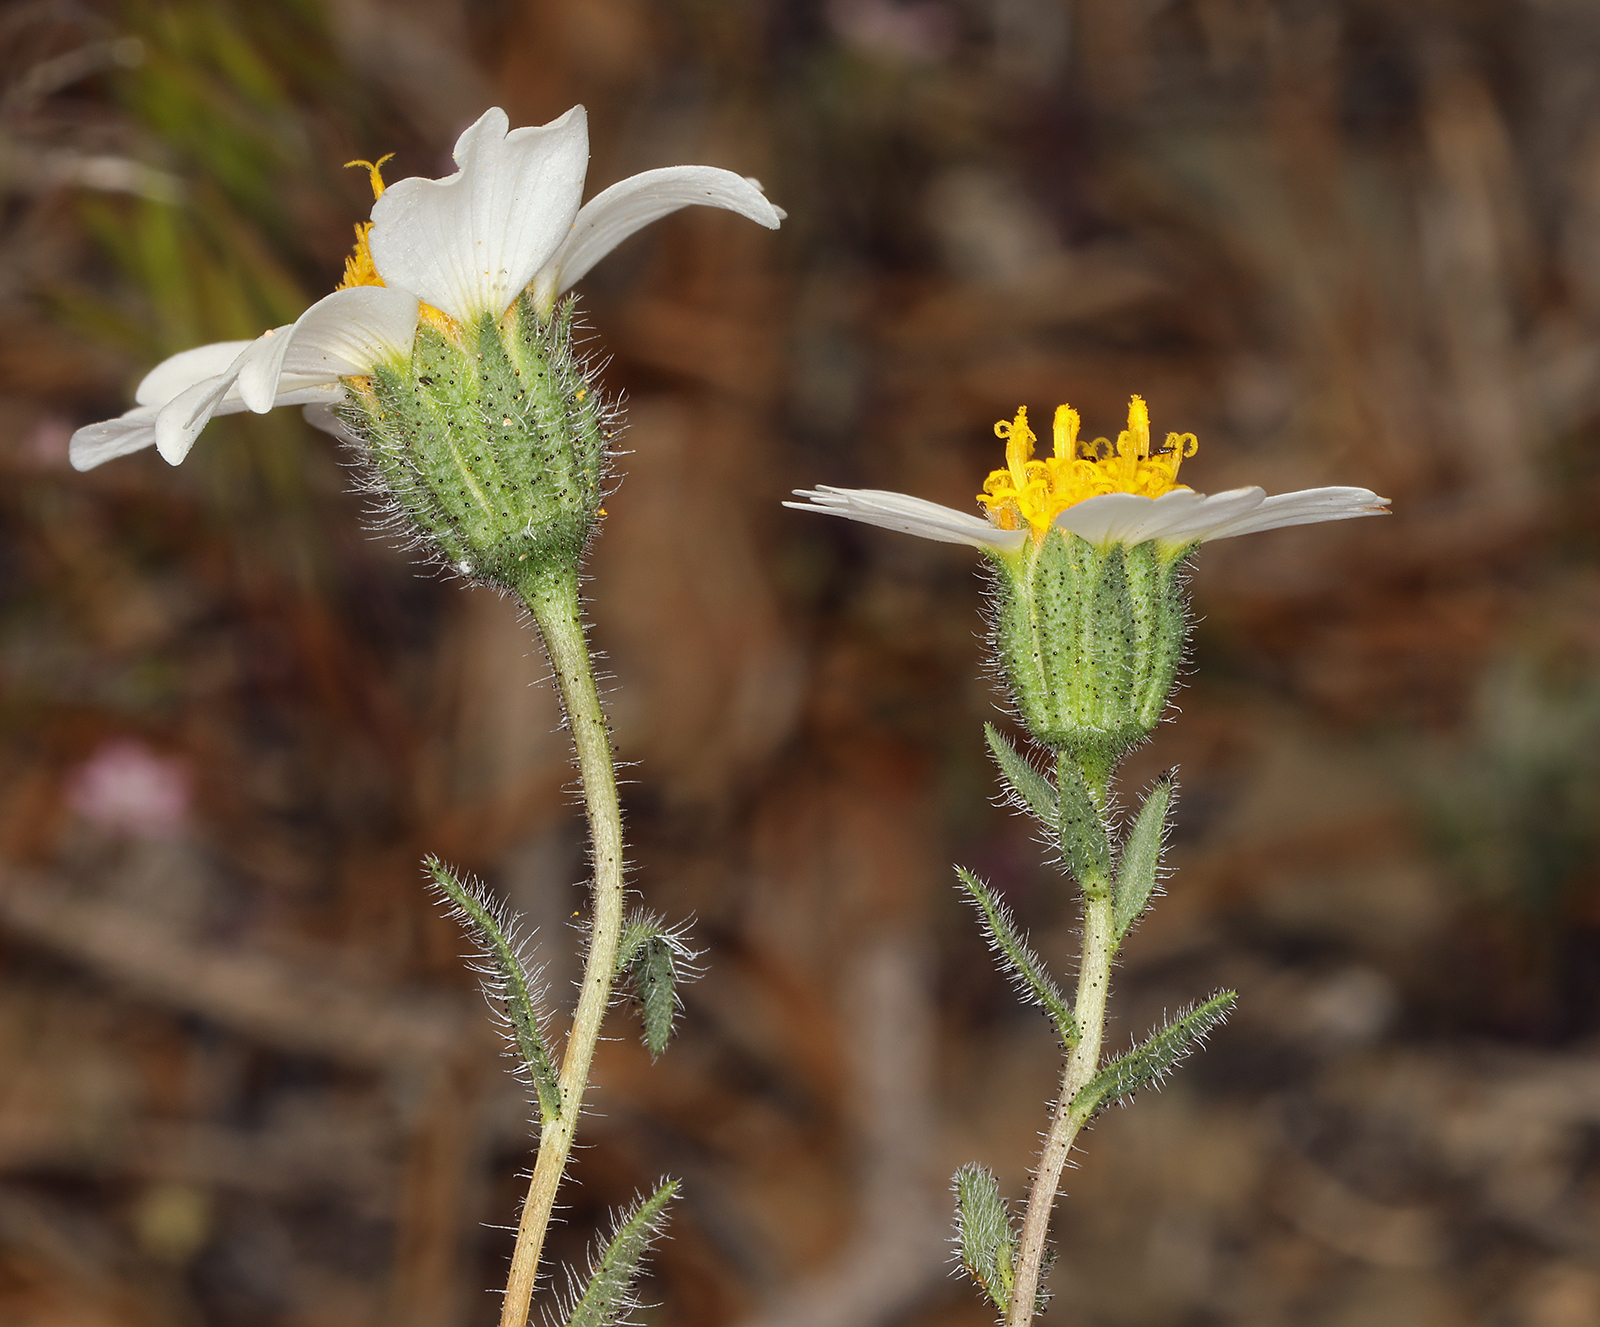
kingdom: Plantae
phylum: Tracheophyta
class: Magnoliopsida
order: Asterales
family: Asteraceae
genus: Layia
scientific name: Layia glandulosa
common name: White layia
